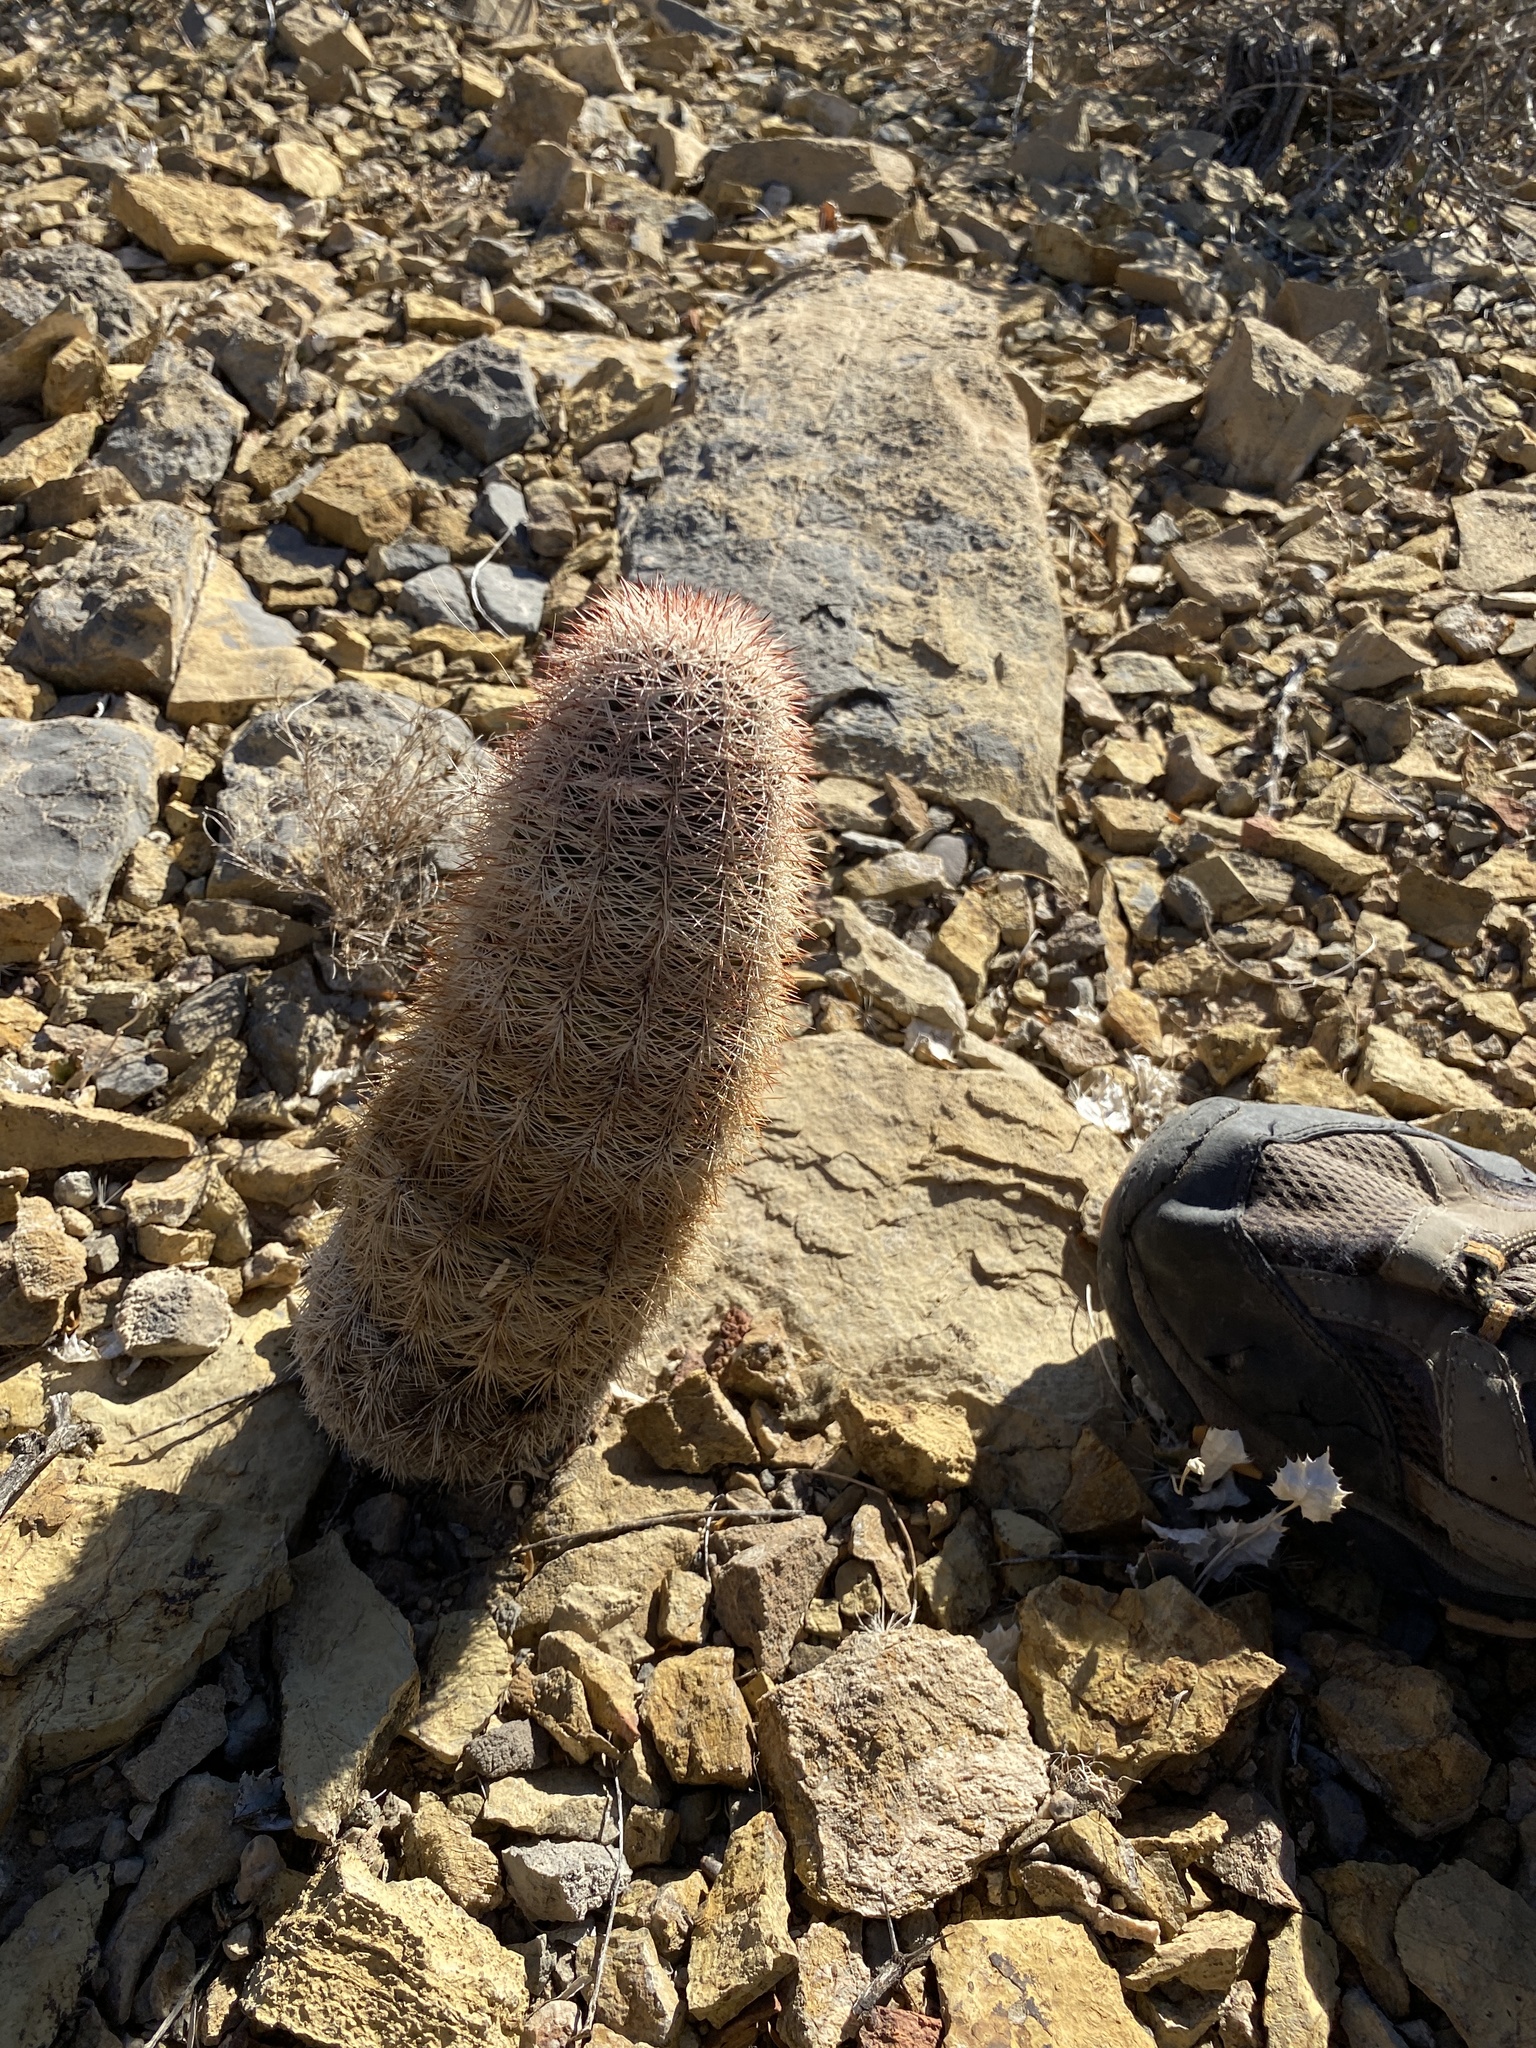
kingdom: Plantae
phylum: Tracheophyta
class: Magnoliopsida
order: Caryophyllales
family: Cactaceae
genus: Echinocereus
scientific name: Echinocereus dasyacanthus
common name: Spiny hedgehog cactus
